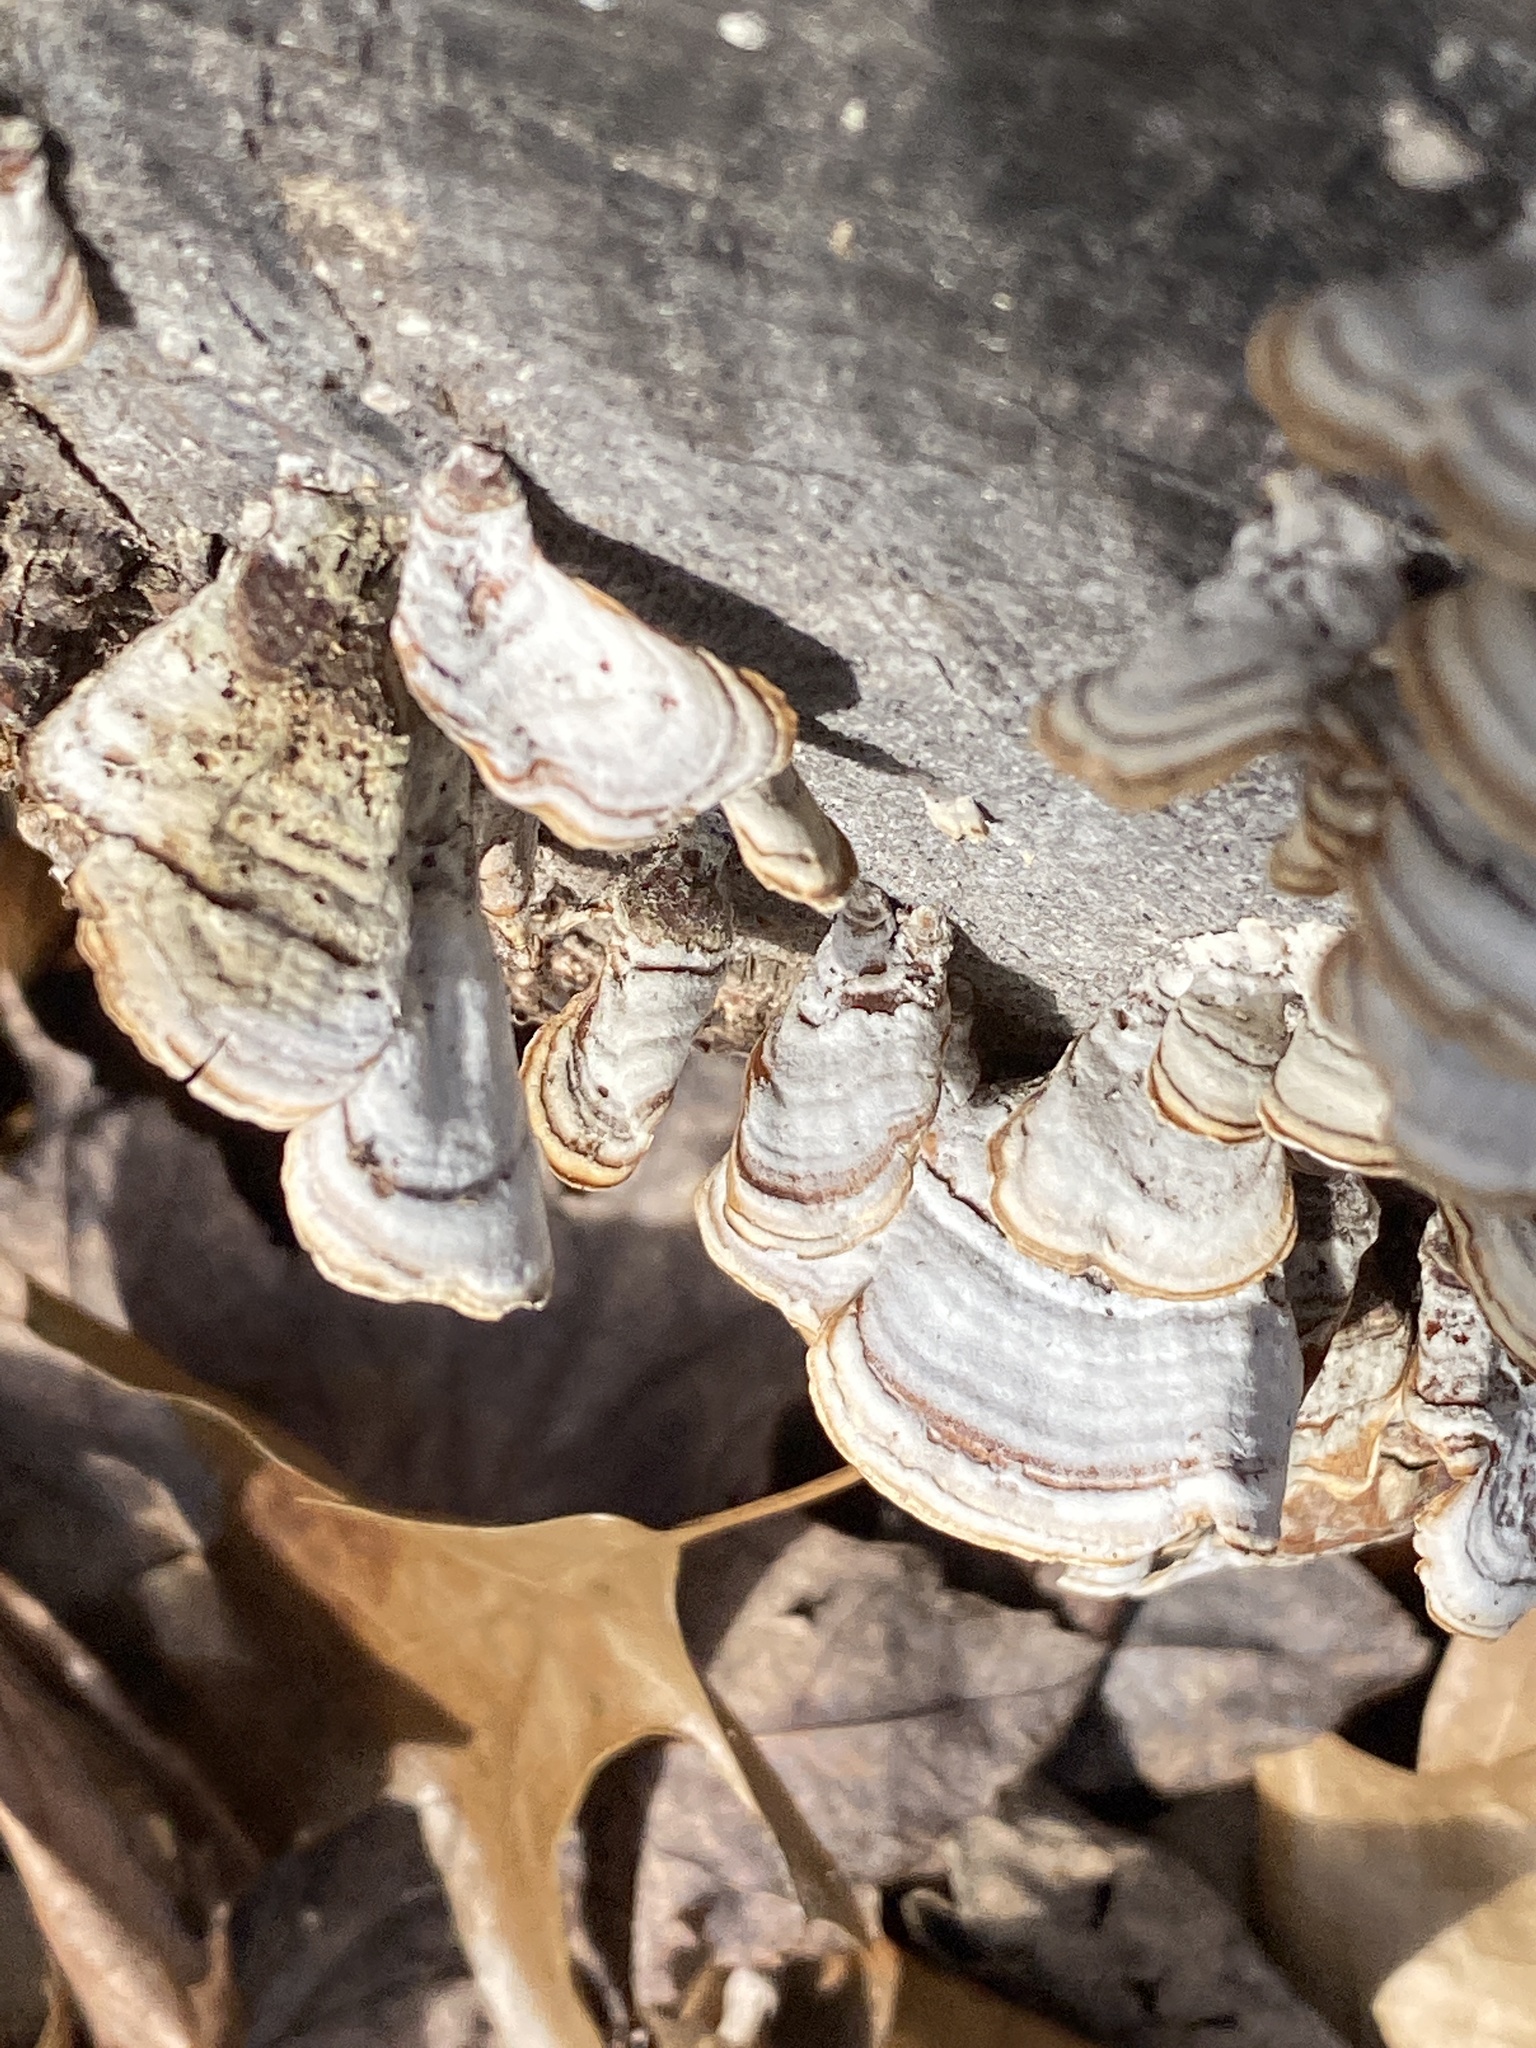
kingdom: Fungi
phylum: Basidiomycota
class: Agaricomycetes
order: Russulales
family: Stereaceae
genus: Stereum
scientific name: Stereum lobatum
